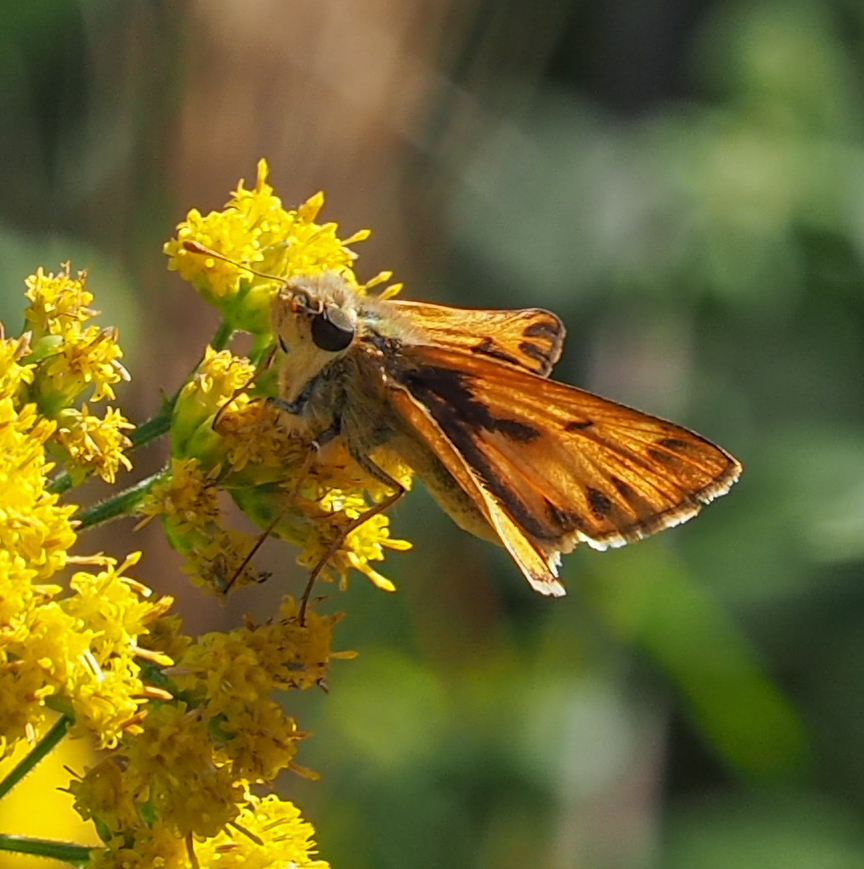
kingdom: Animalia
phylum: Arthropoda
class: Insecta
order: Lepidoptera
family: Hesperiidae
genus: Hylephila
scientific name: Hylephila phyleus
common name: Fiery skipper
